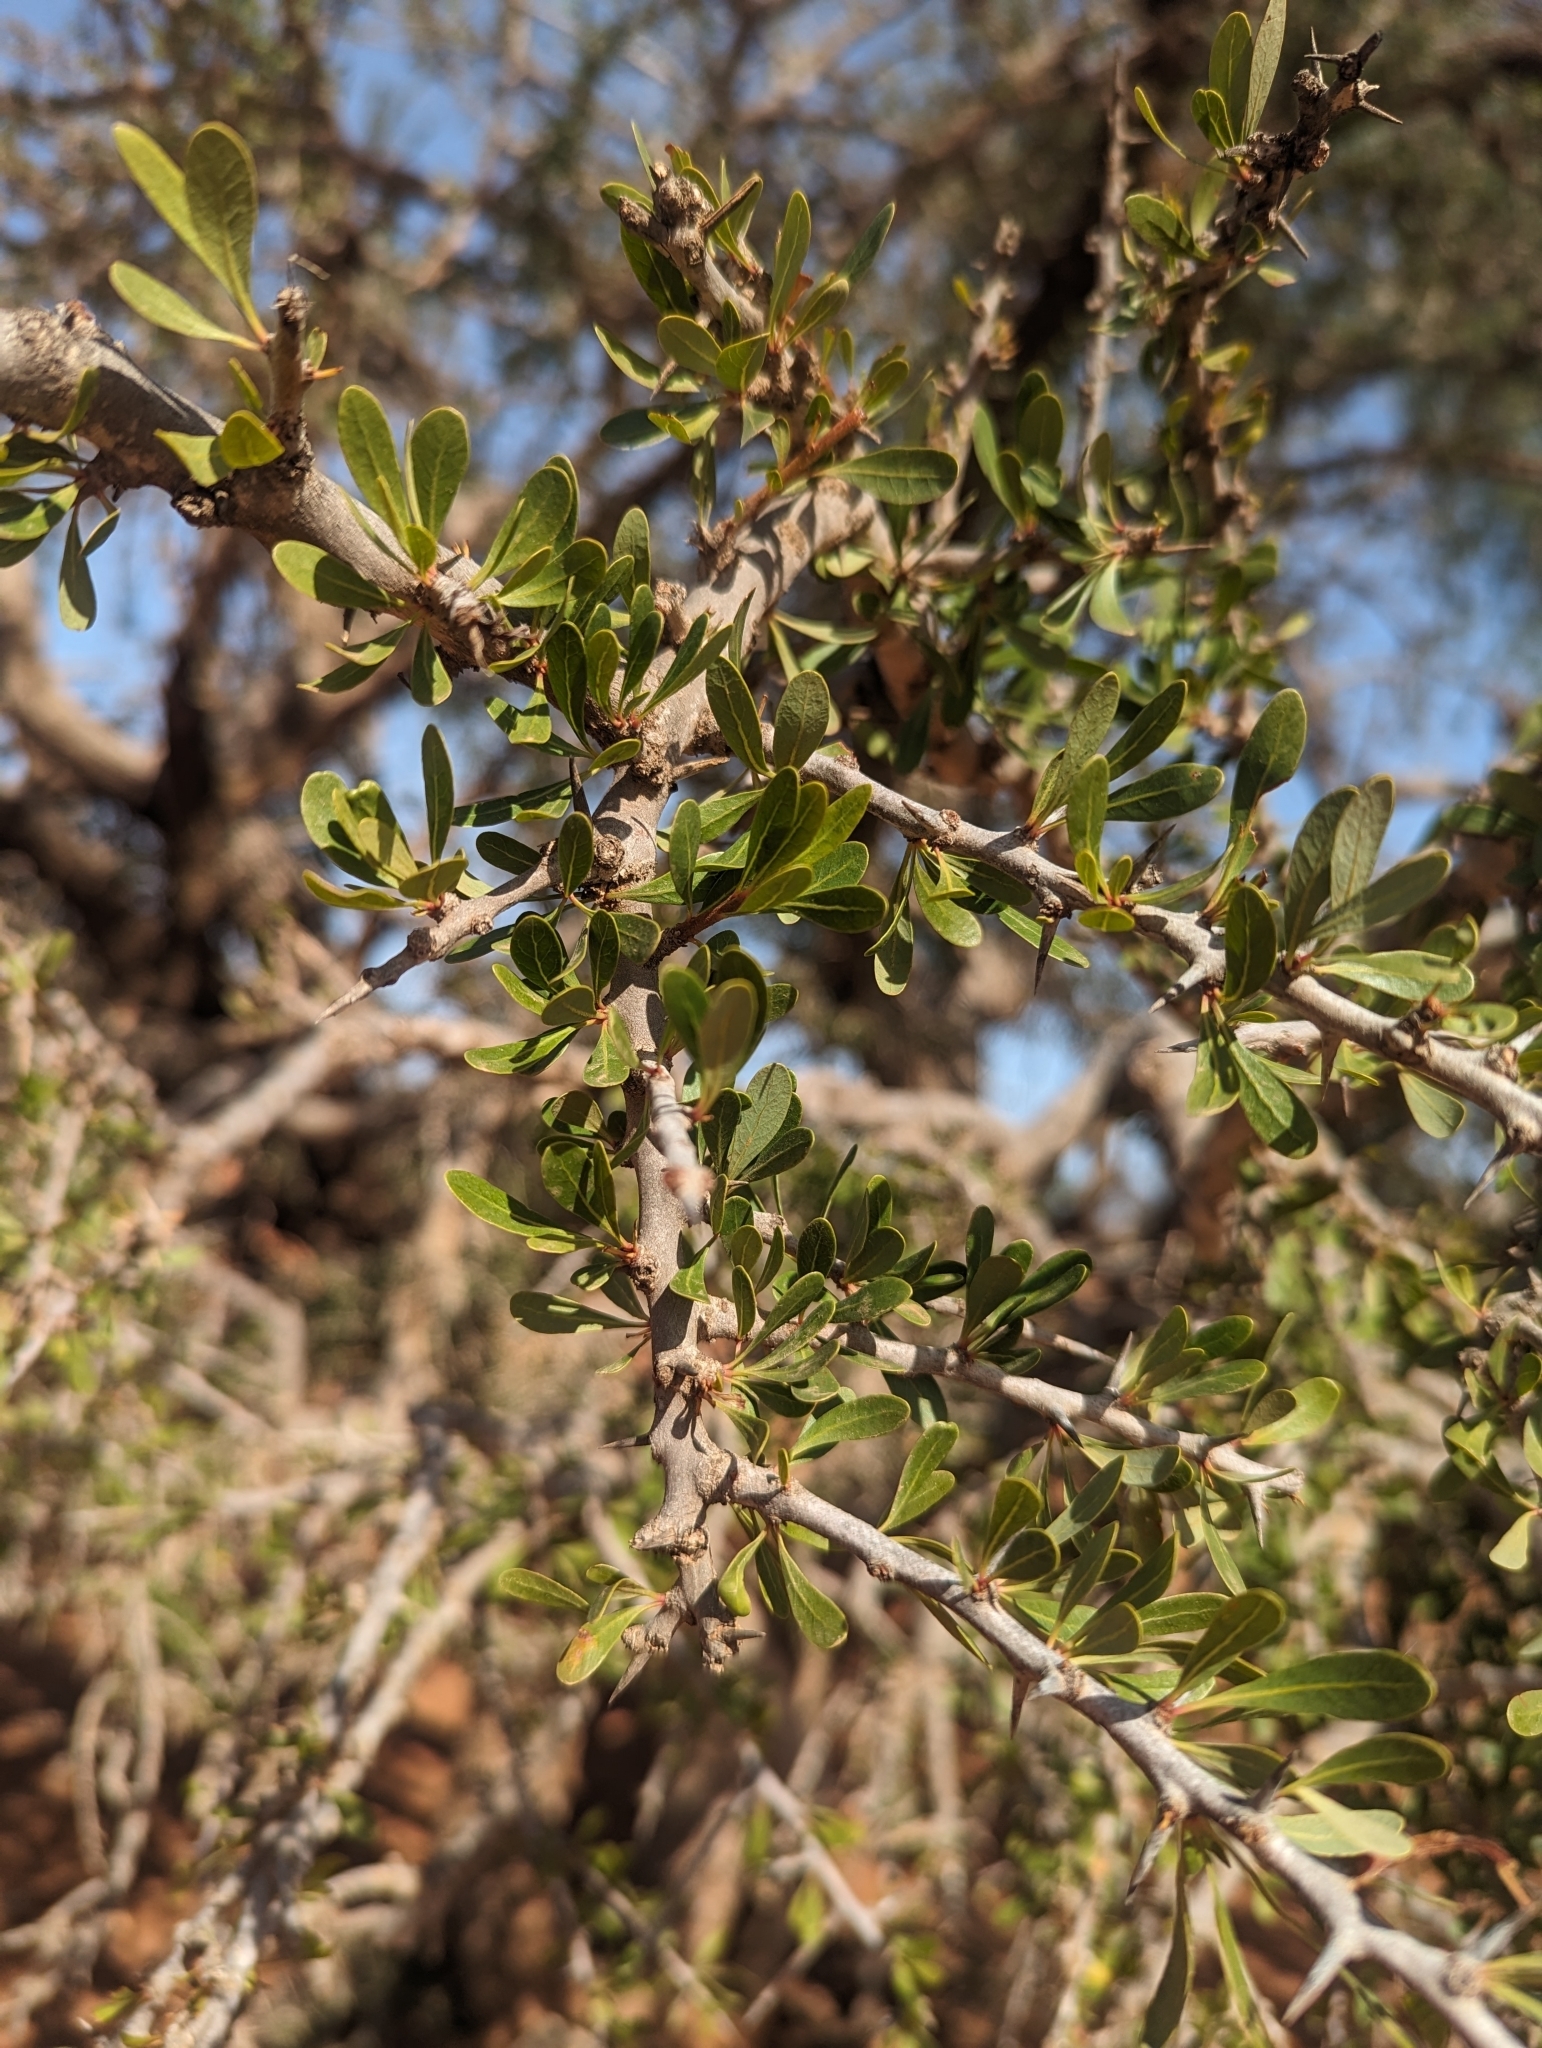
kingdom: Plantae
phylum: Tracheophyta
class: Magnoliopsida
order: Ericales
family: Sapotaceae
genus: Sideroxylon
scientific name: Sideroxylon spinosum
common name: Argan
